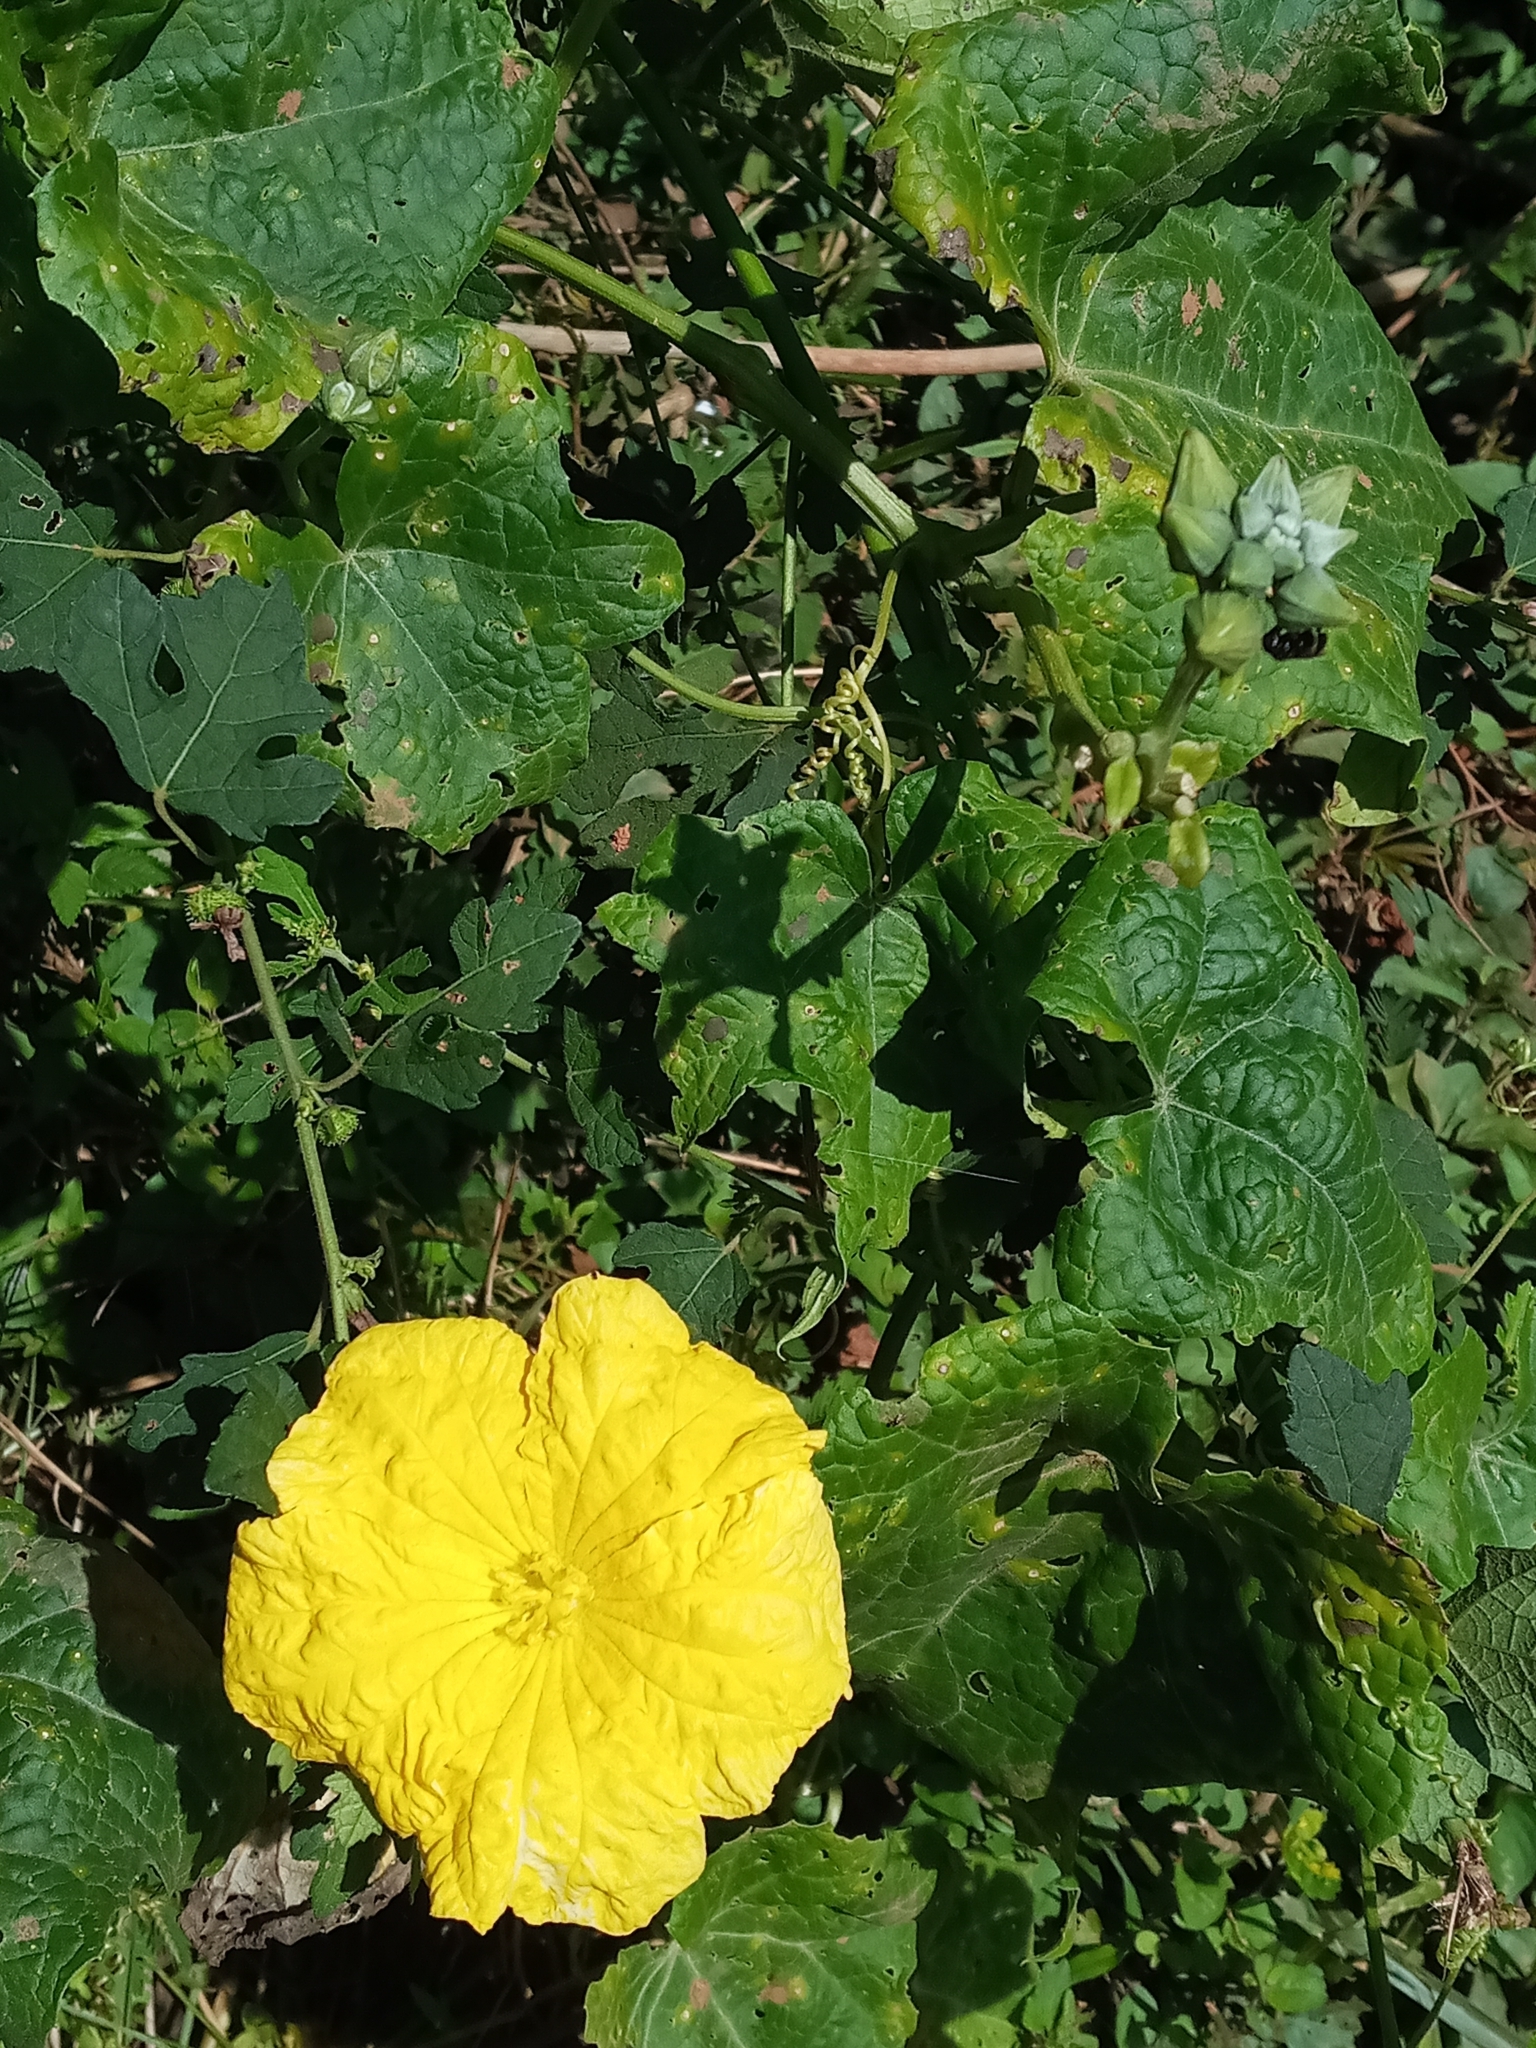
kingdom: Plantae
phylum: Tracheophyta
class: Magnoliopsida
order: Cucurbitales
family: Cucurbitaceae
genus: Luffa
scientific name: Luffa aegyptiaca
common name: Sponge gourd
